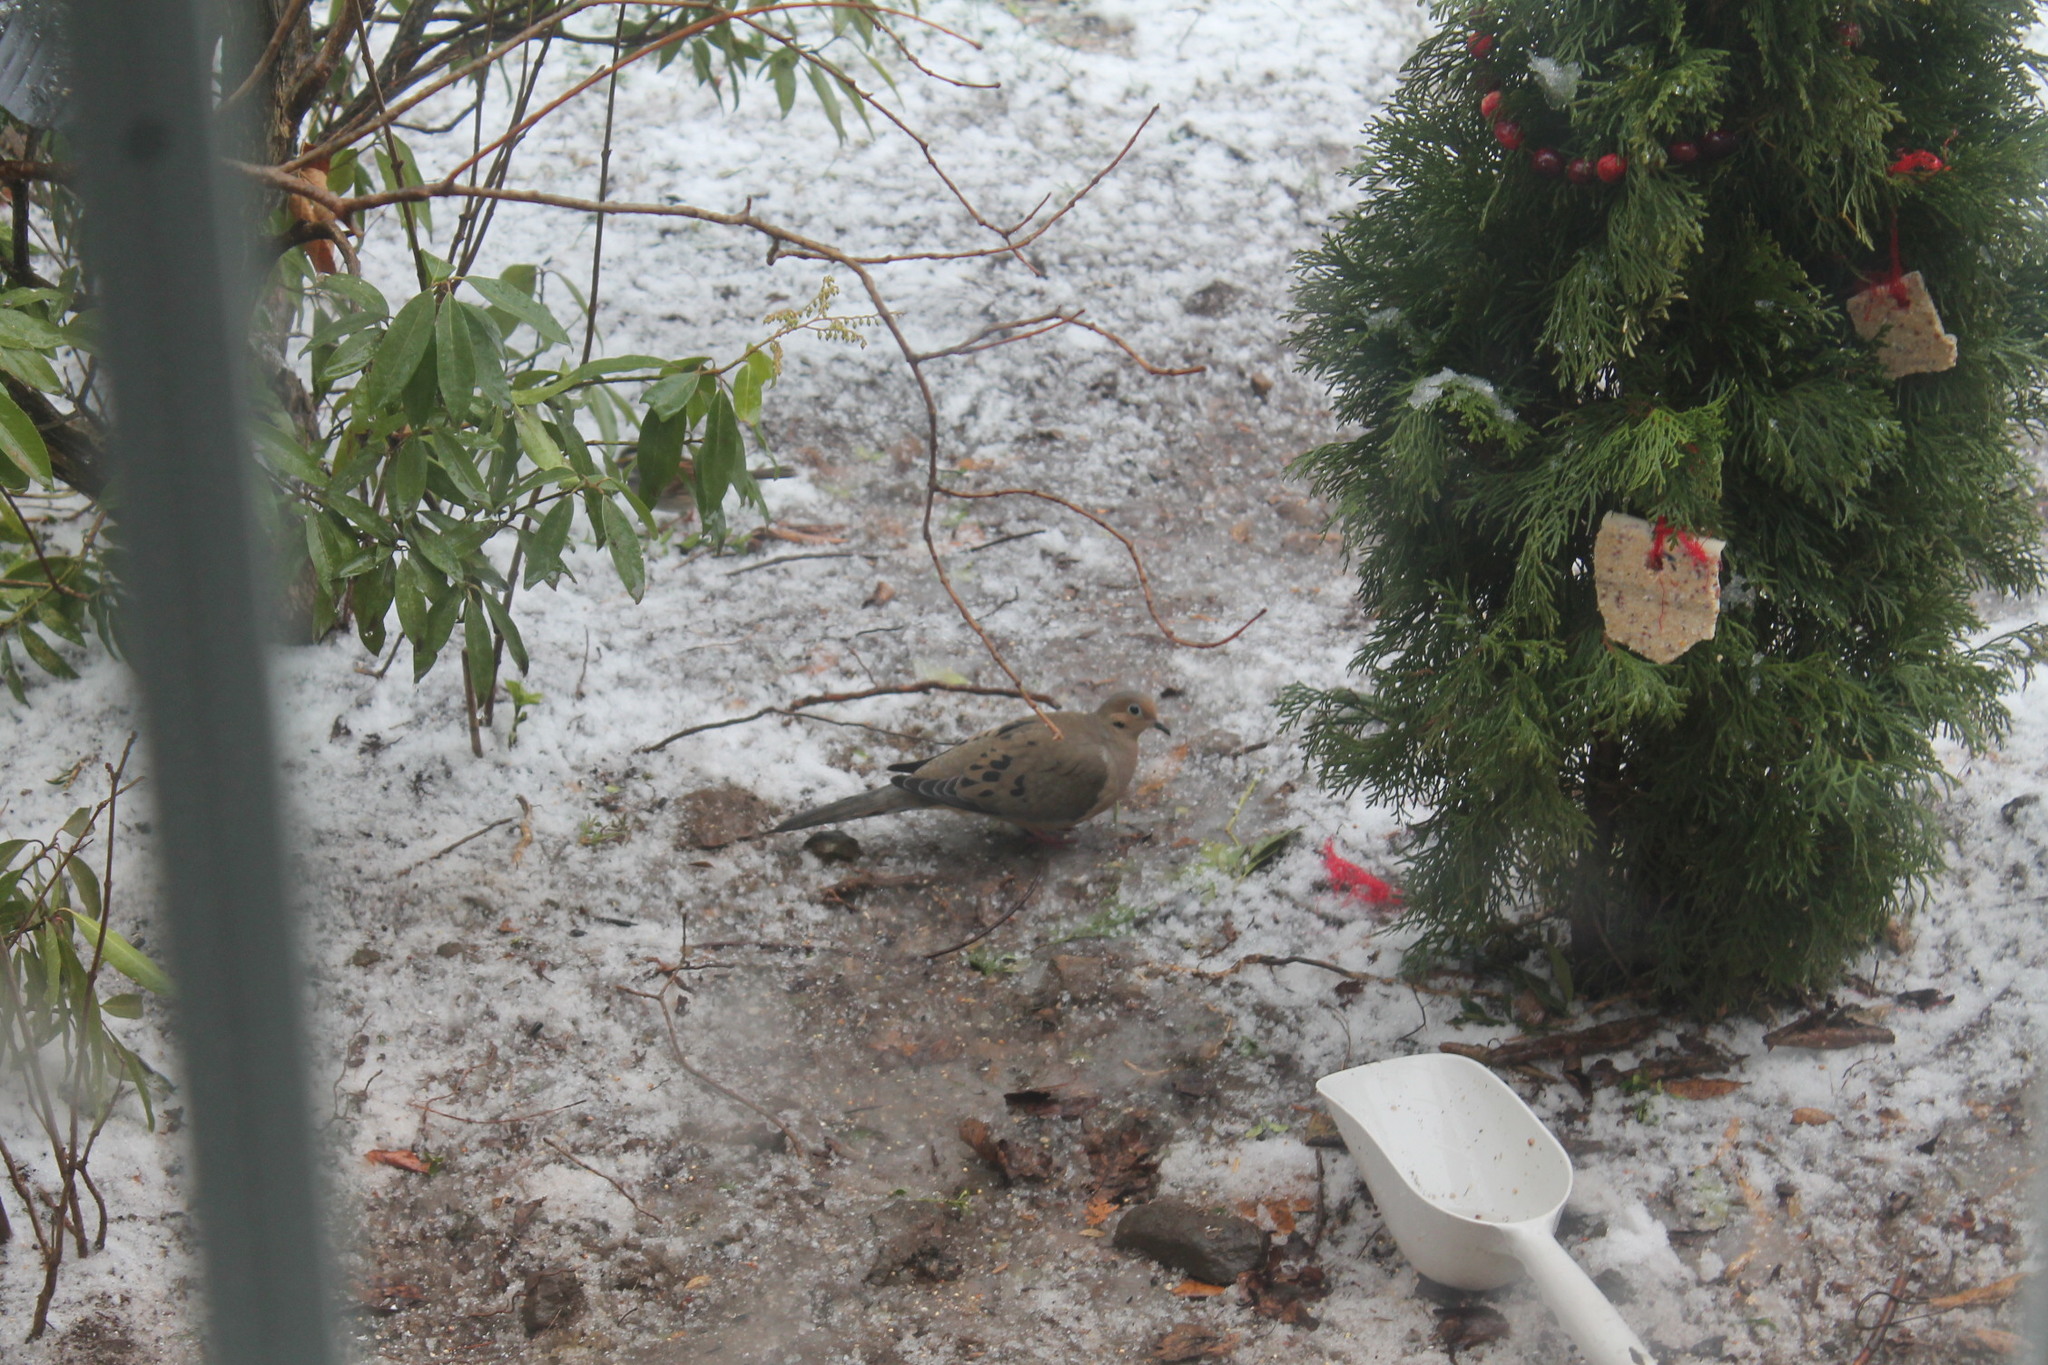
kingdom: Animalia
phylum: Chordata
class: Aves
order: Columbiformes
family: Columbidae
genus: Zenaida
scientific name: Zenaida macroura
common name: Mourning dove
